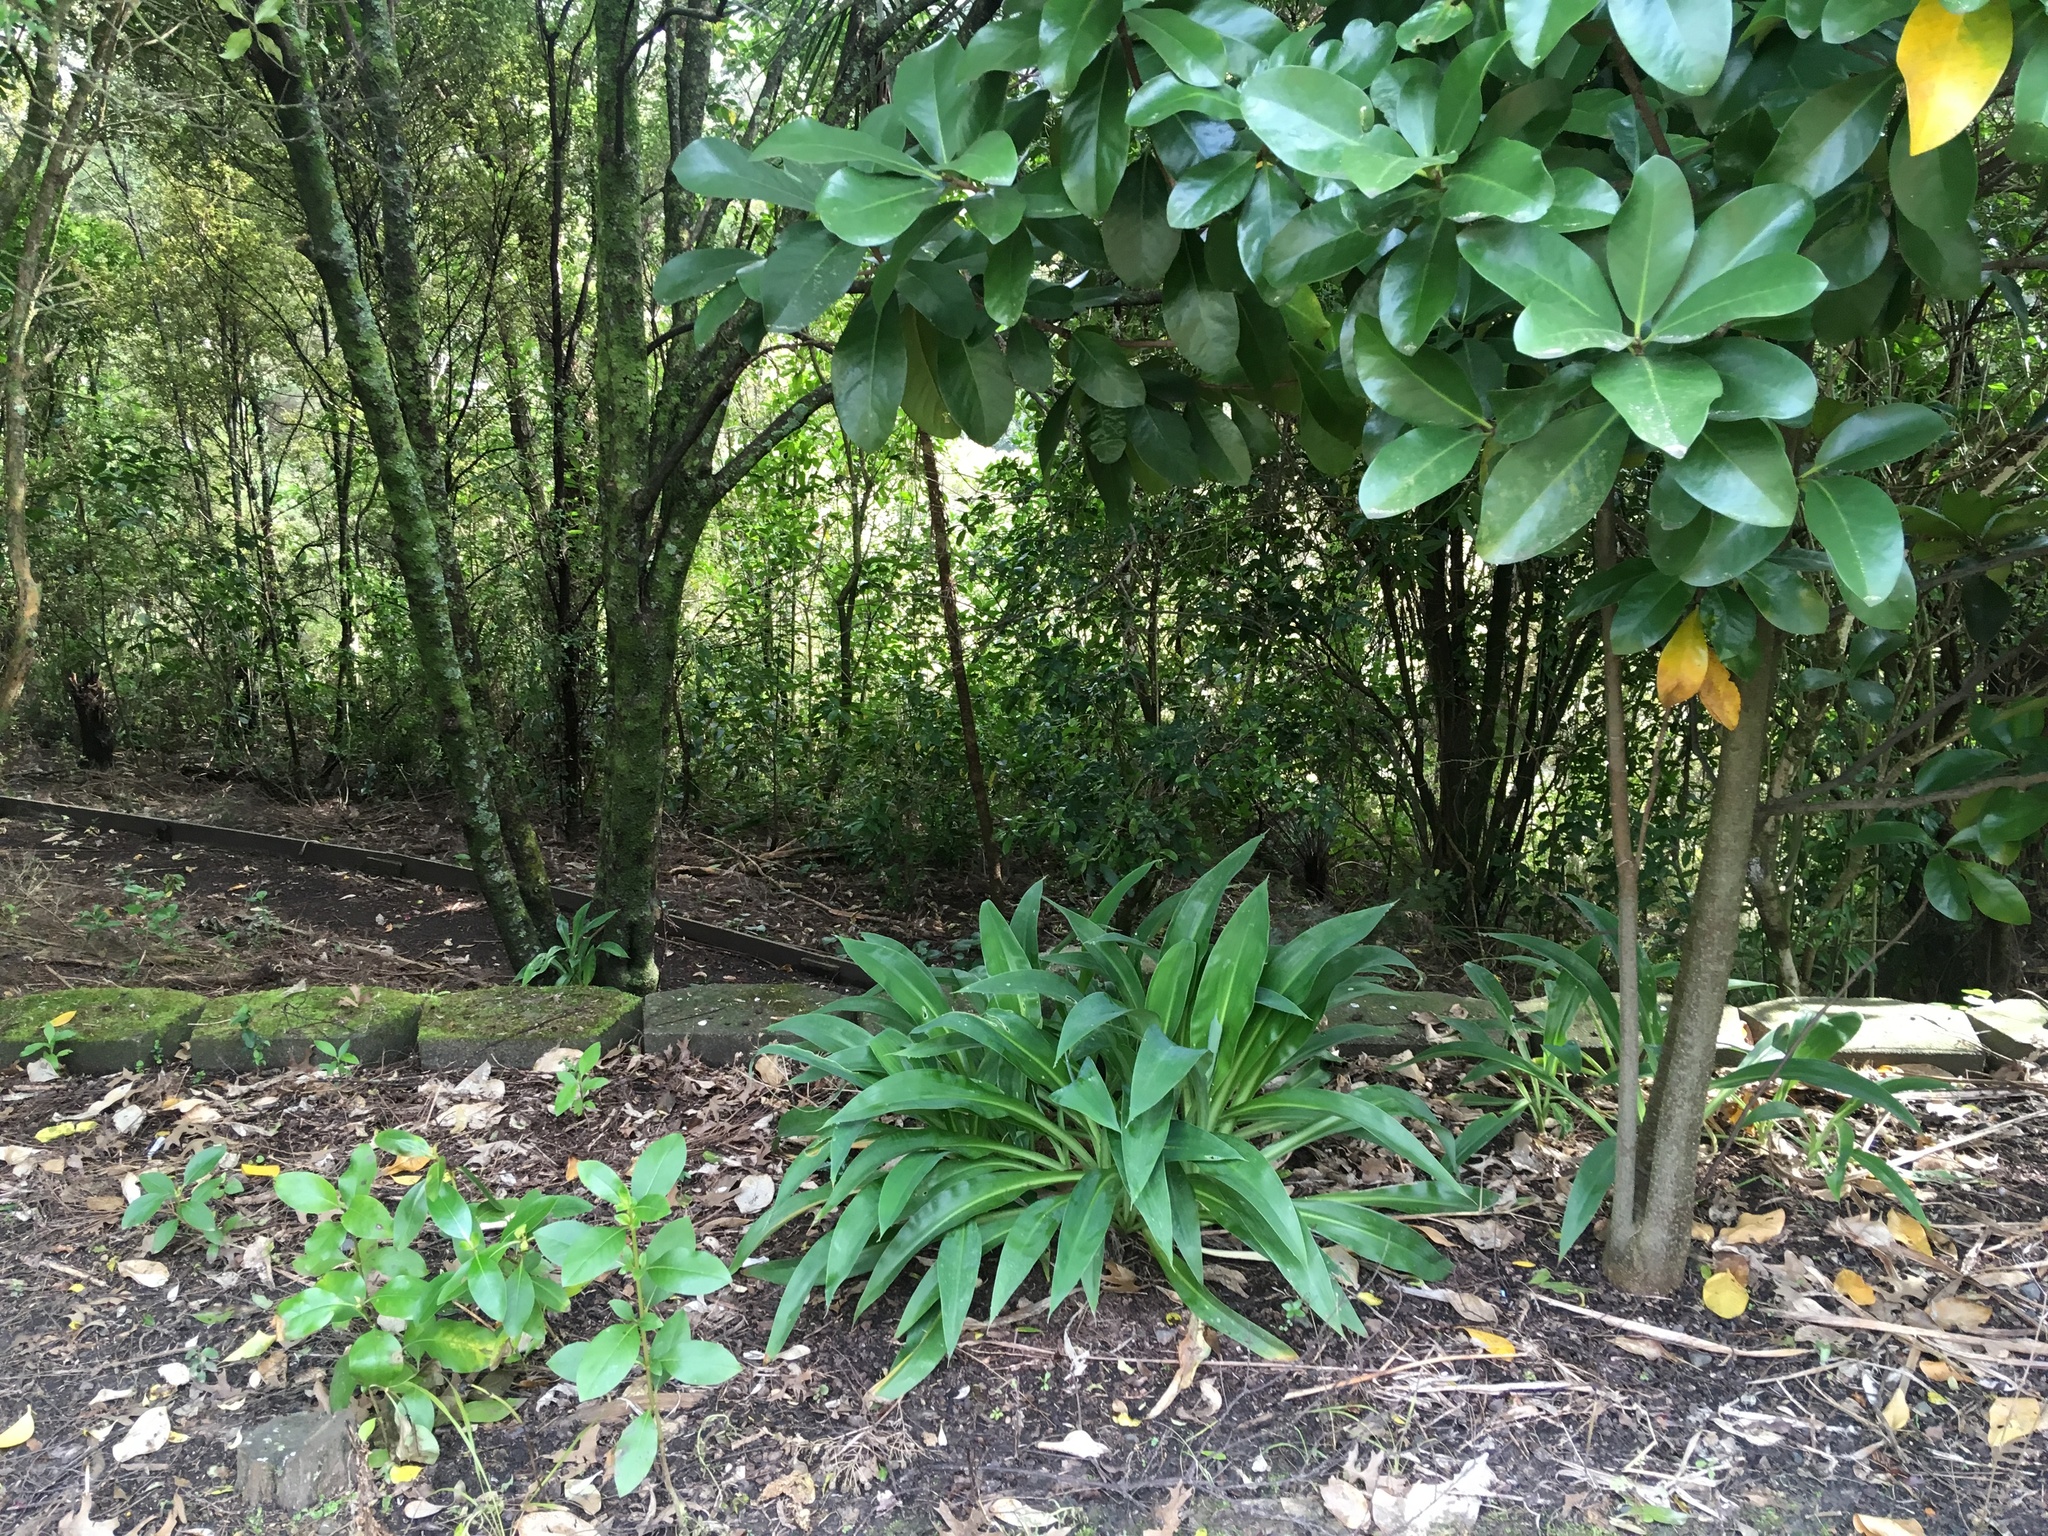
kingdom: Plantae
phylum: Tracheophyta
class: Liliopsida
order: Asparagales
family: Asparagaceae
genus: Arthropodium
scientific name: Arthropodium cirratum
